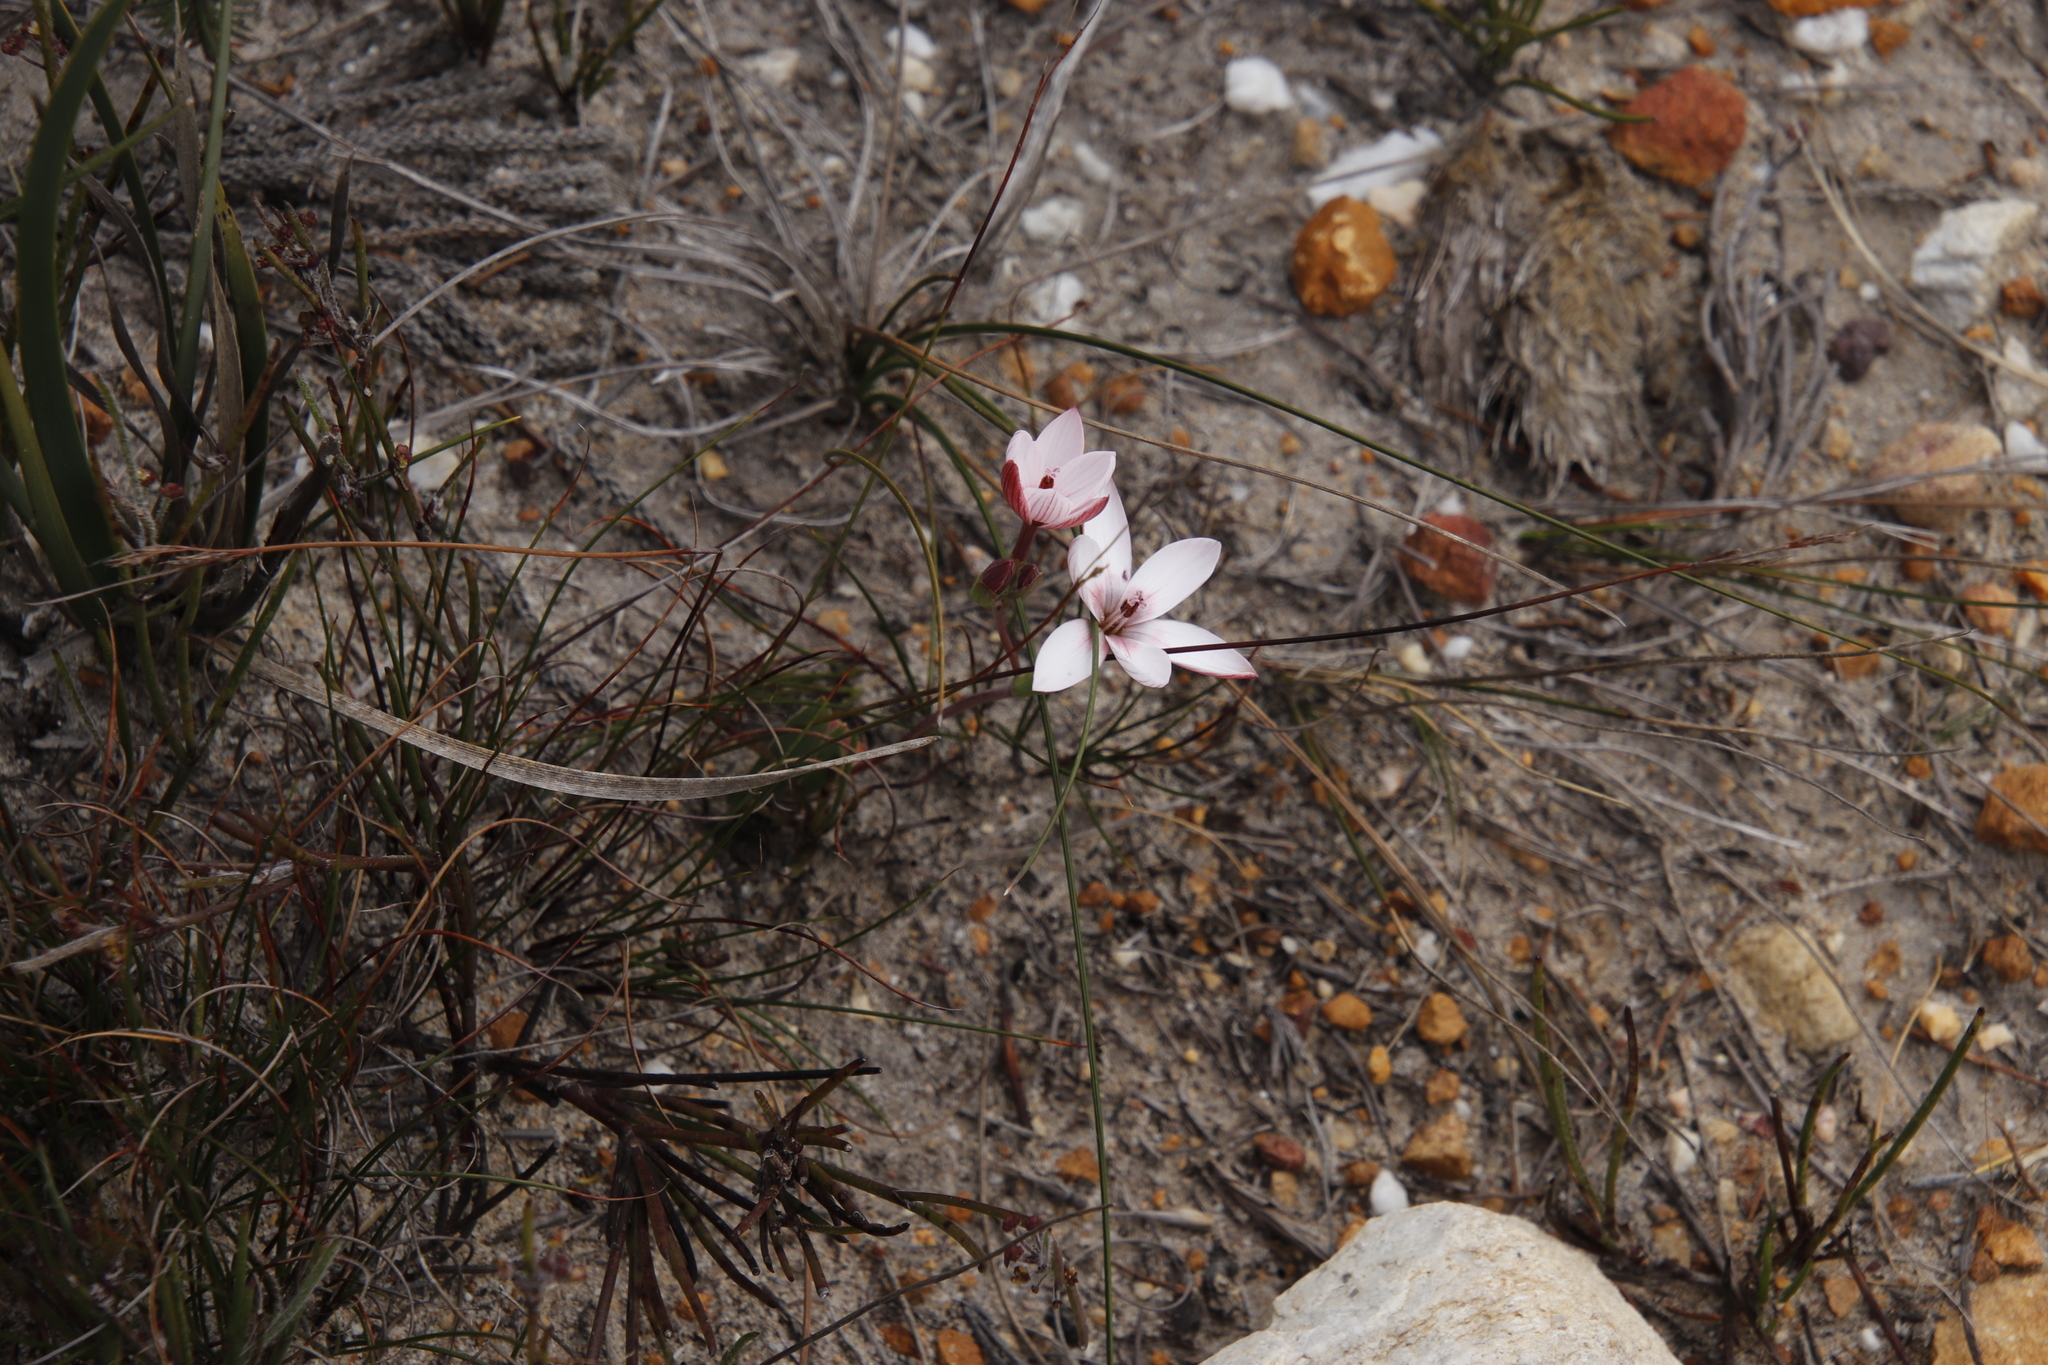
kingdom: Plantae
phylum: Tracheophyta
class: Liliopsida
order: Asparagales
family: Iridaceae
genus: Geissorhiza
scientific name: Geissorhiza ovata
